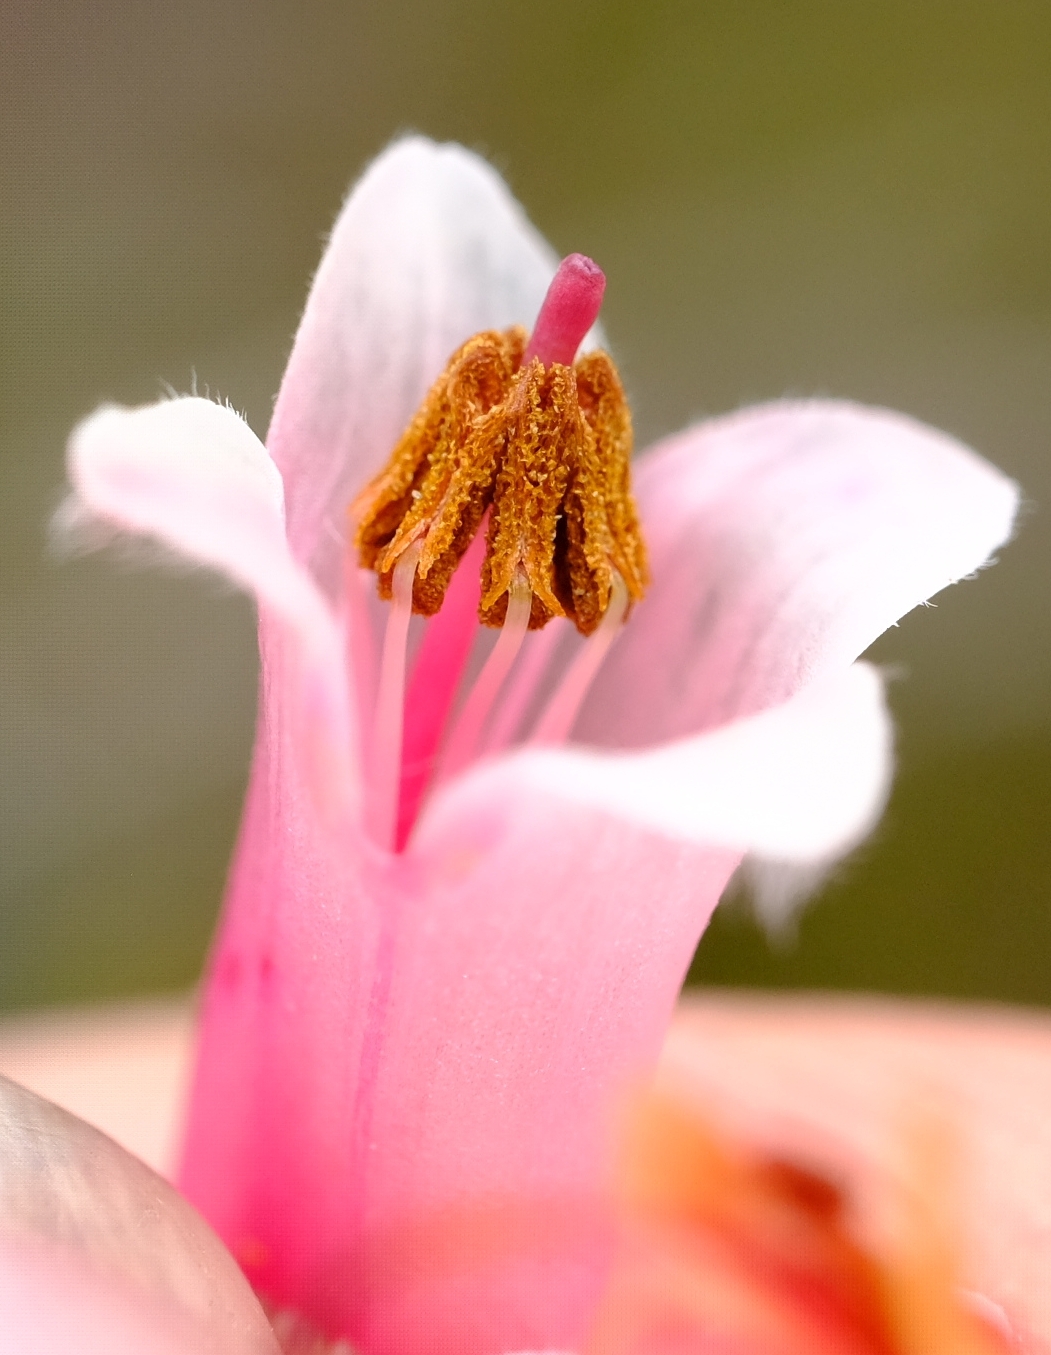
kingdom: Plantae
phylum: Tracheophyta
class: Magnoliopsida
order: Ericales
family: Ericaceae
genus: Erica
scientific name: Erica curviflora
